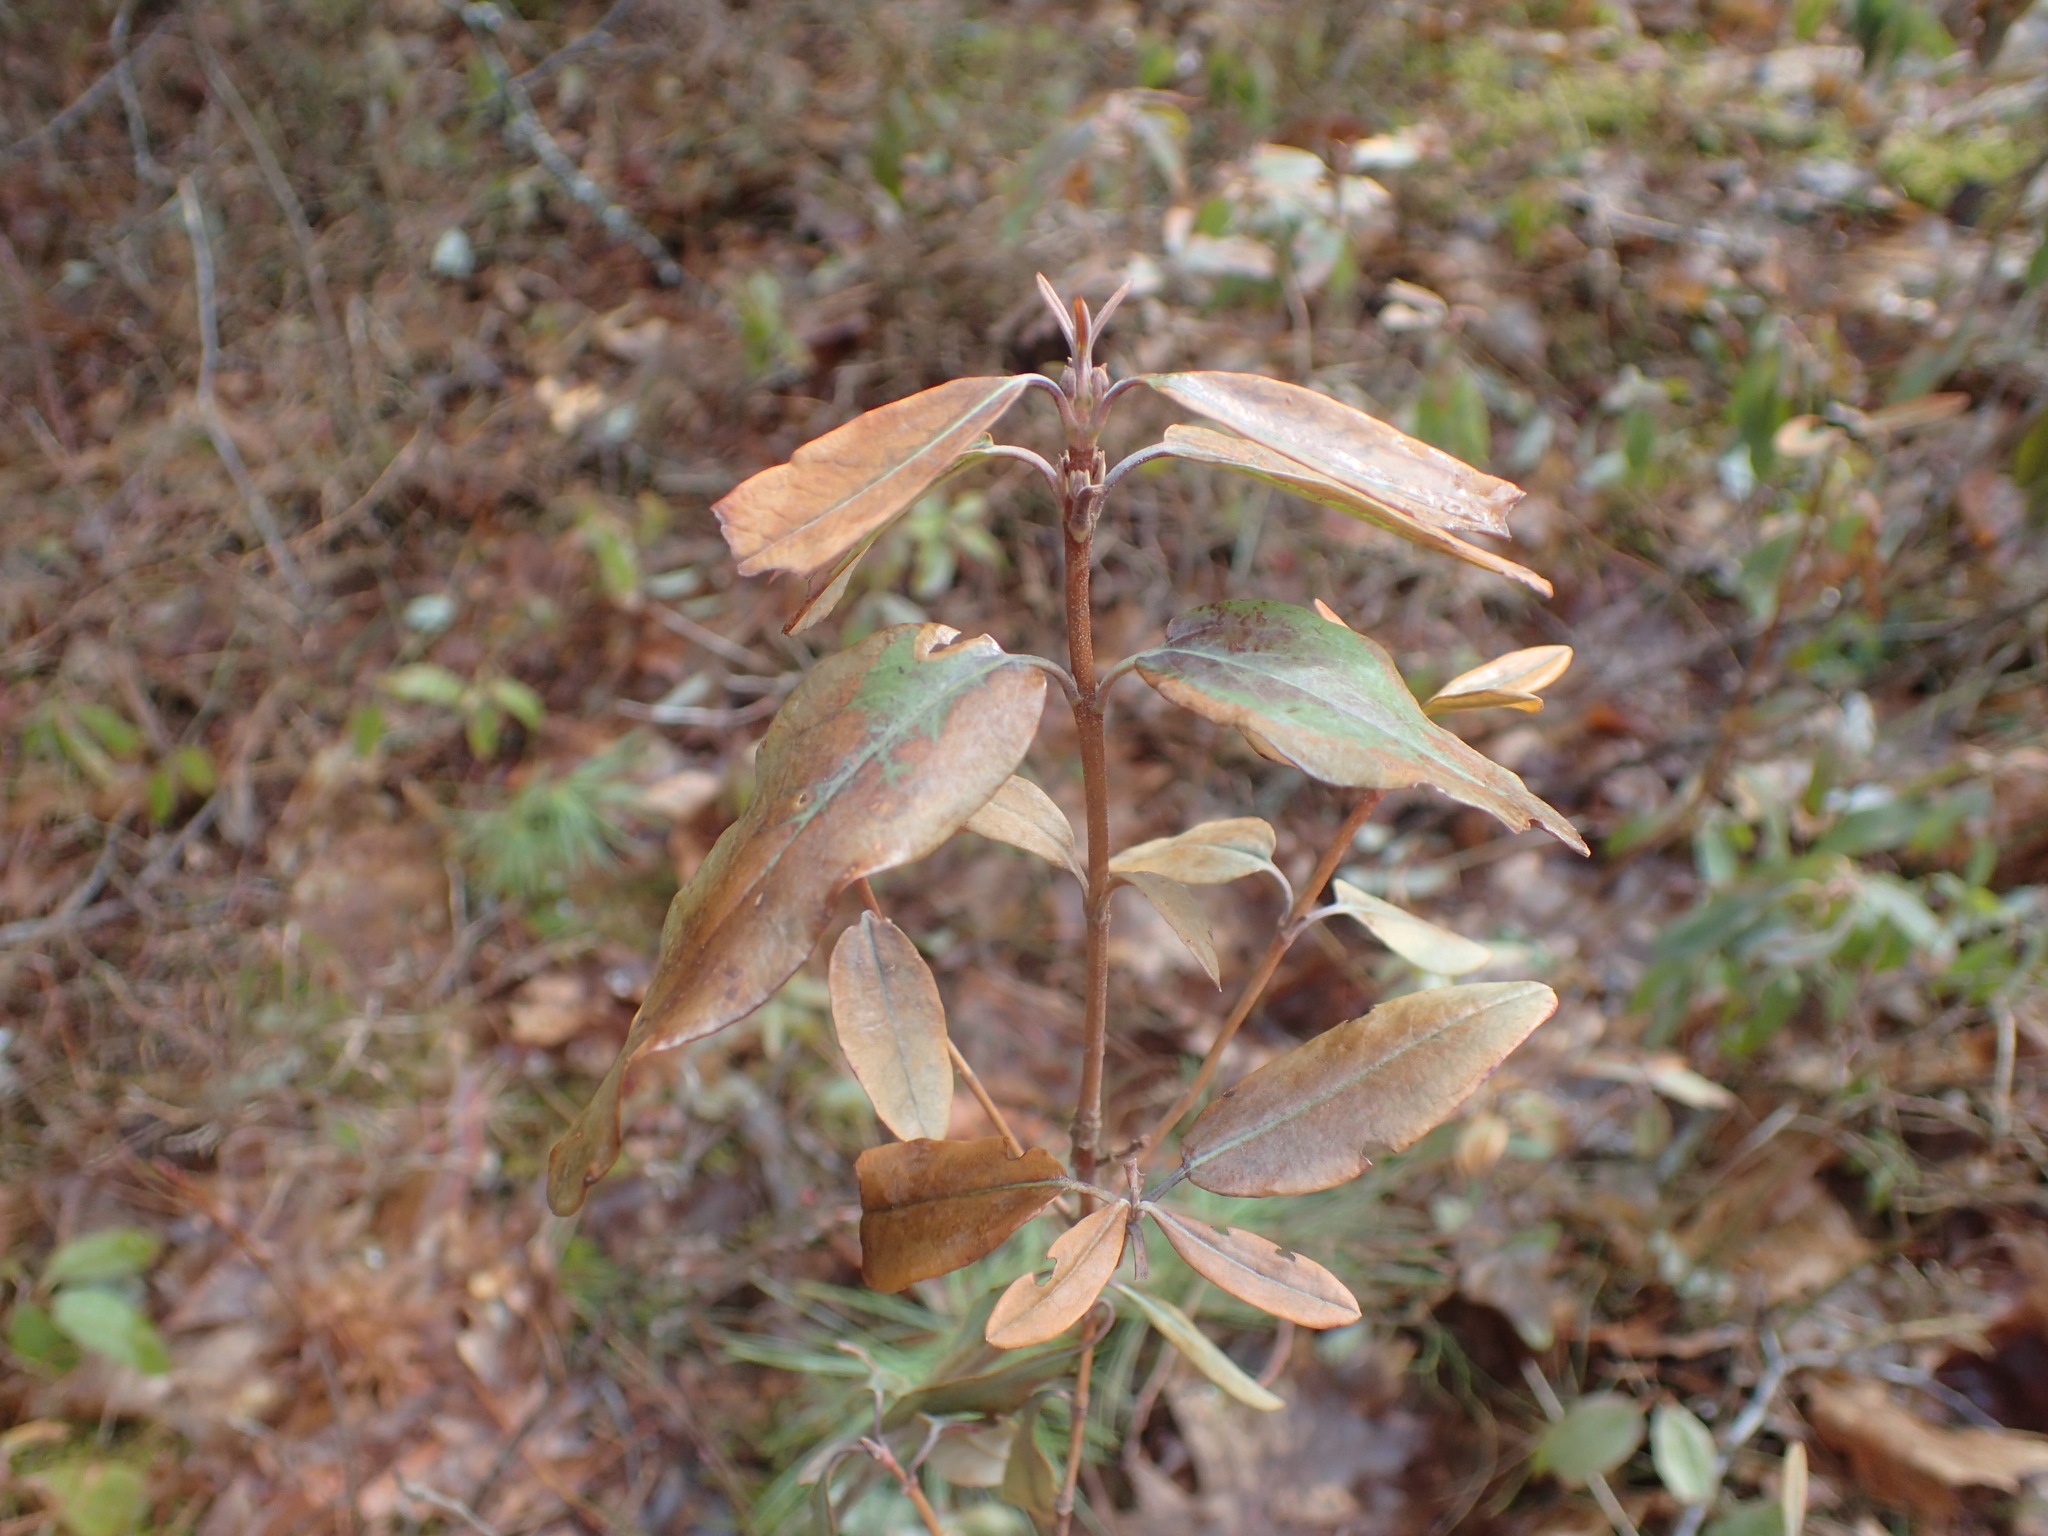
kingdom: Plantae
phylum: Tracheophyta
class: Magnoliopsida
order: Ericales
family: Ericaceae
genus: Kalmia
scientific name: Kalmia angustifolia
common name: Sheep-laurel
